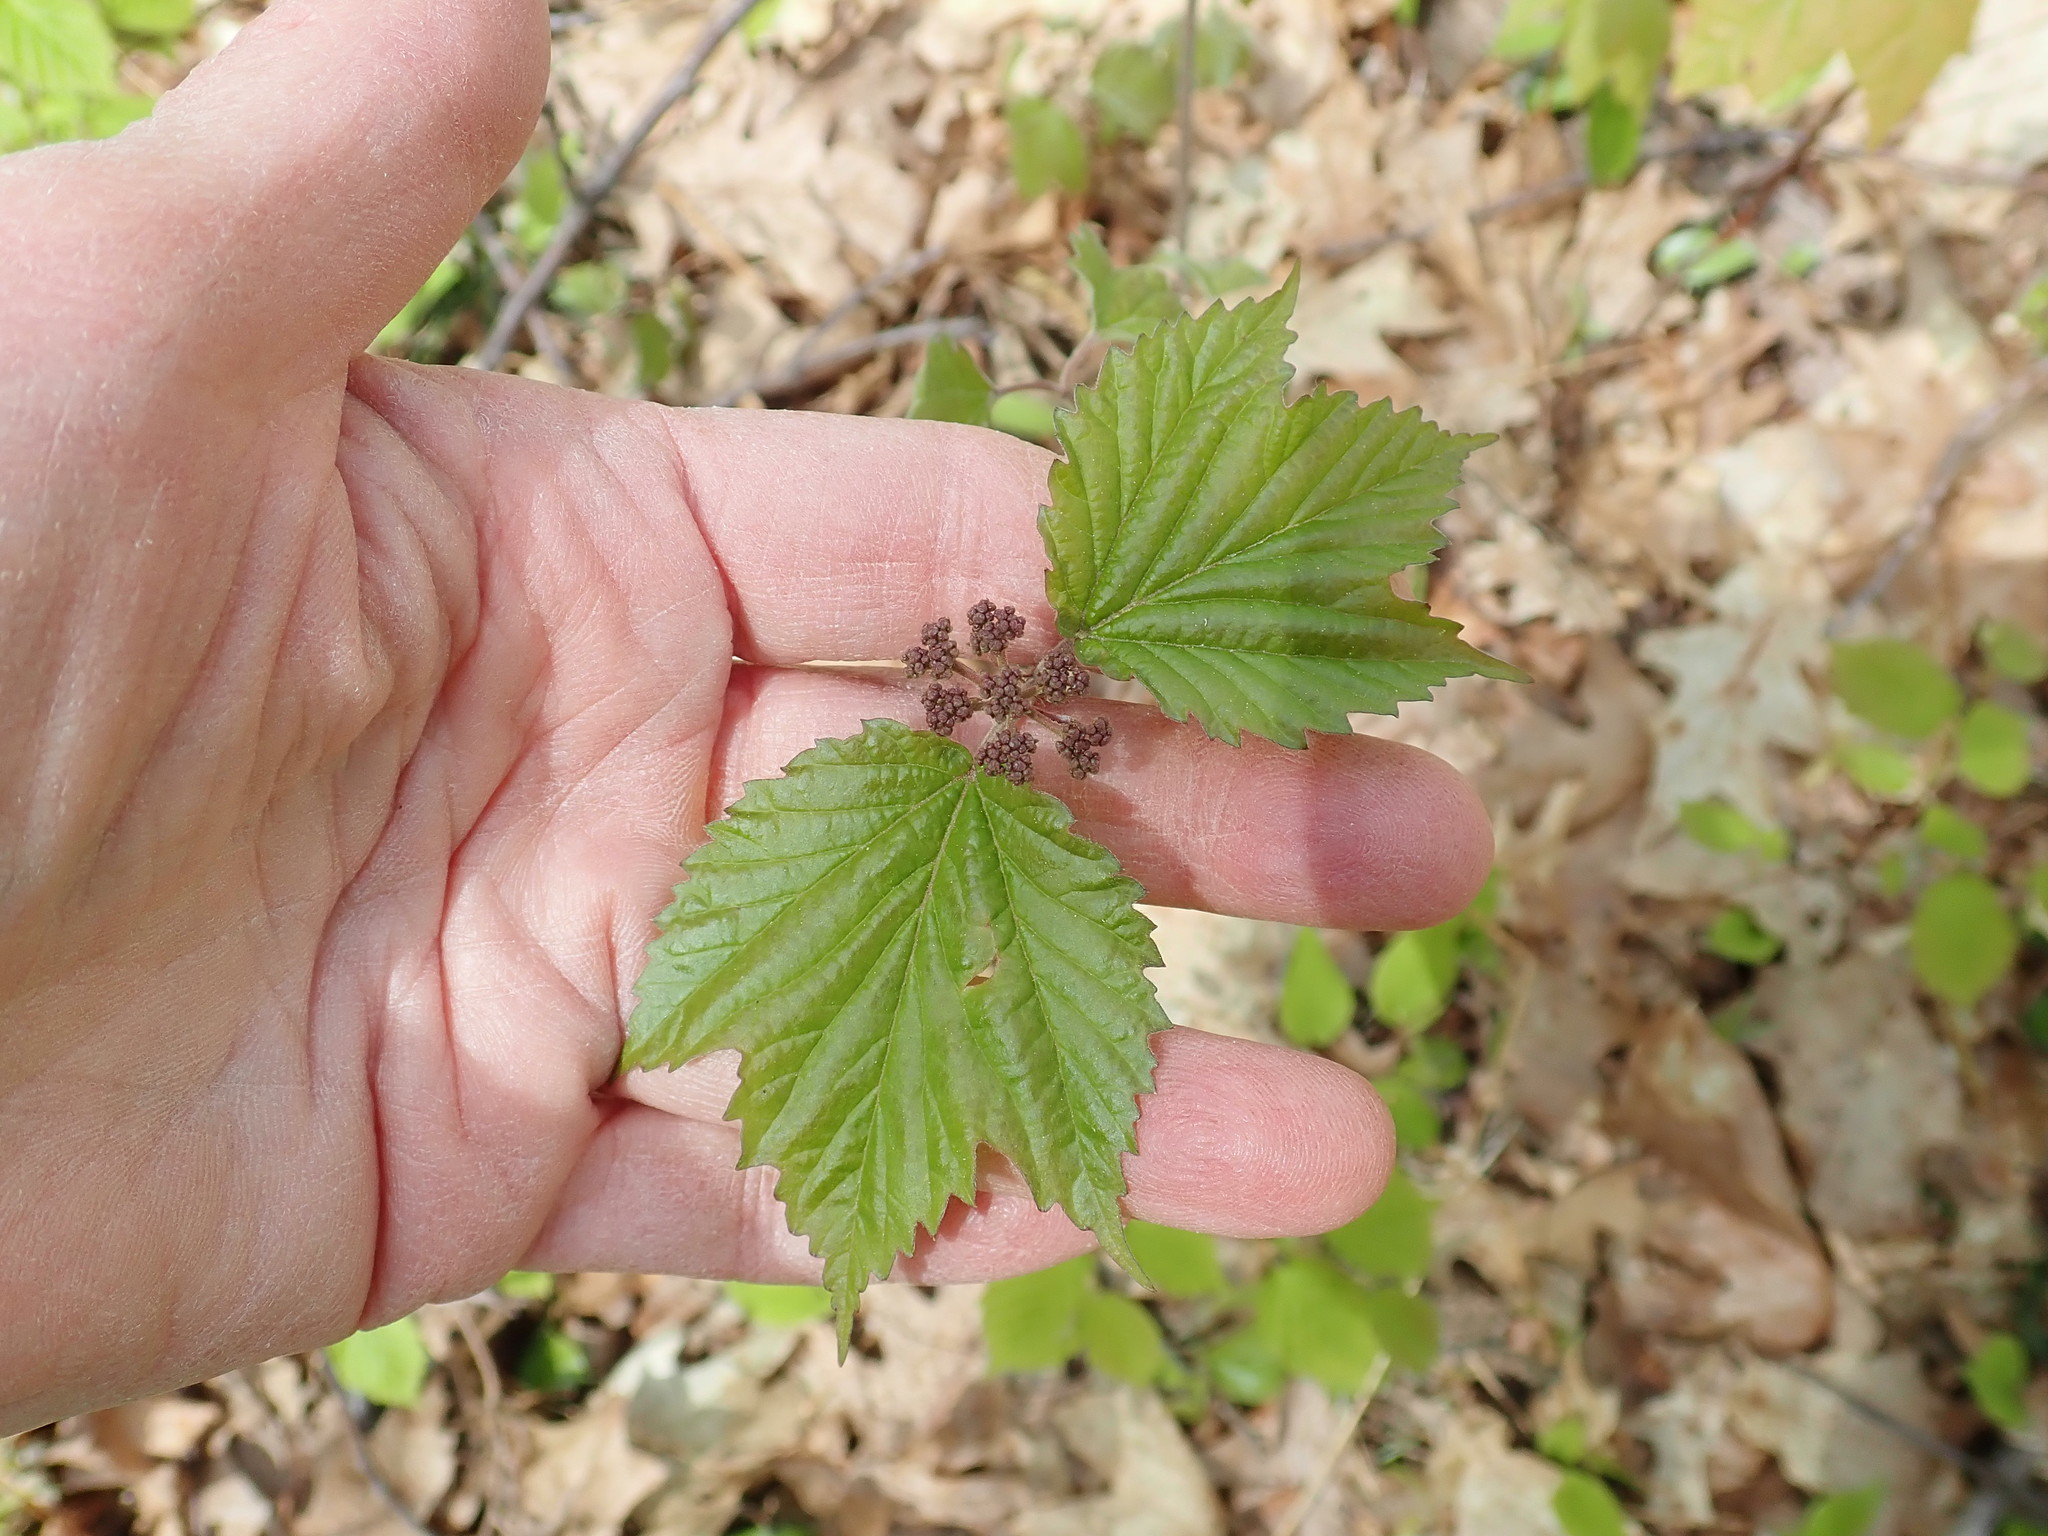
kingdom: Plantae
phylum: Tracheophyta
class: Magnoliopsida
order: Dipsacales
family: Viburnaceae
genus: Viburnum
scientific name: Viburnum acerifolium
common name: Dockmackie
